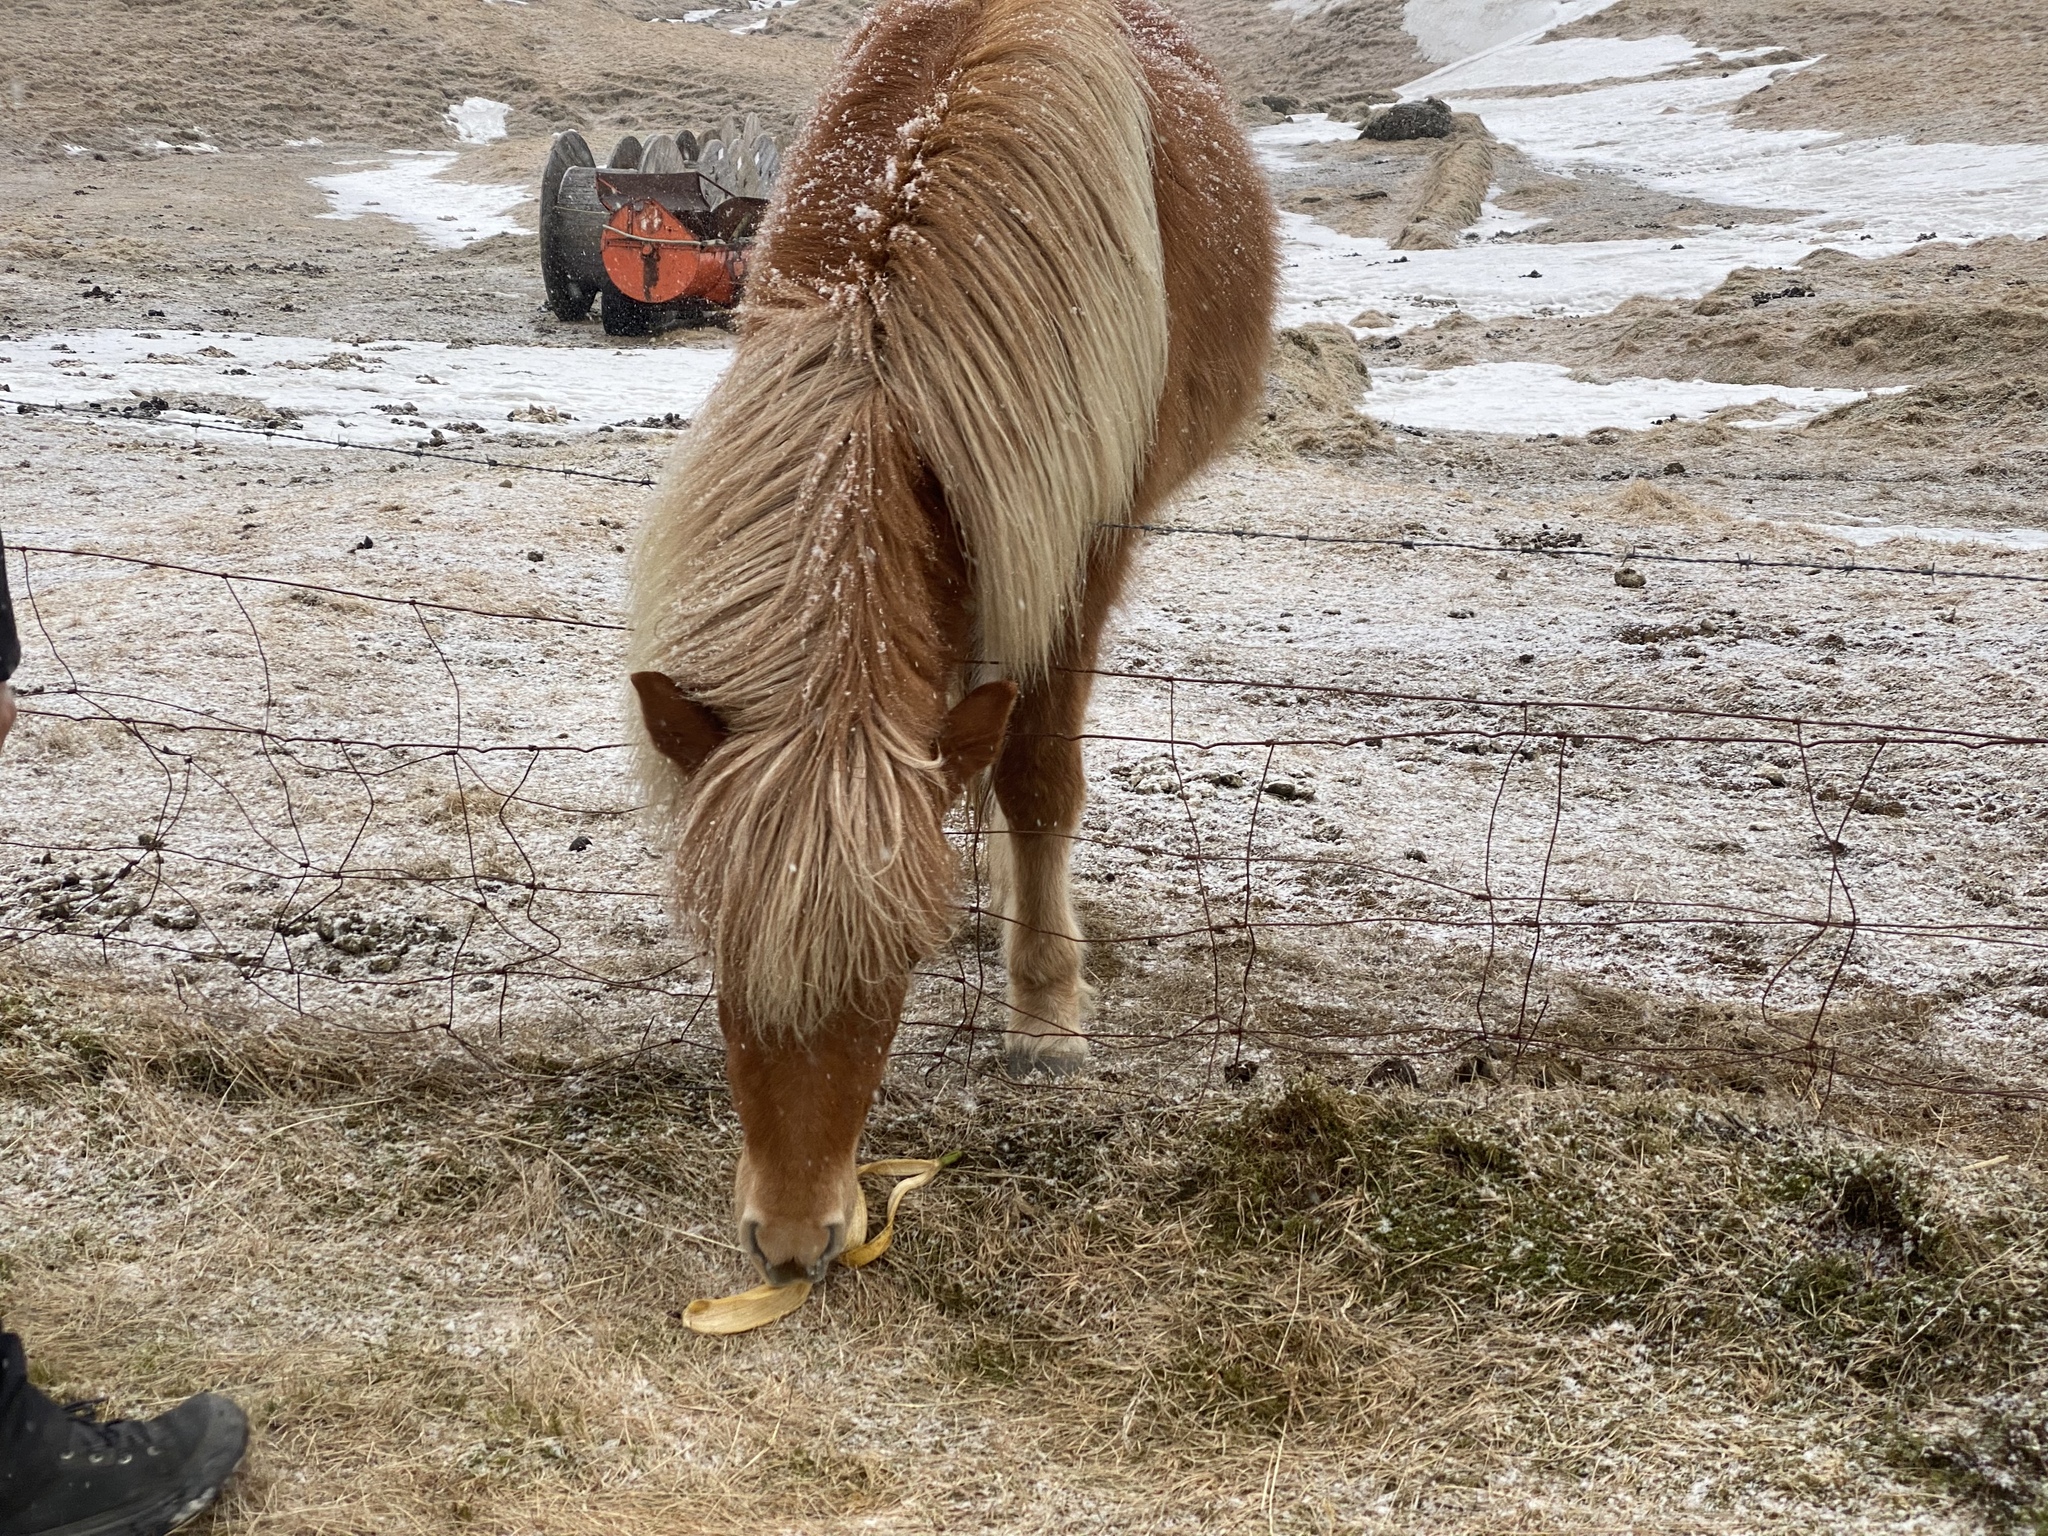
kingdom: Animalia
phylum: Chordata
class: Mammalia
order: Perissodactyla
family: Equidae
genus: Equus
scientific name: Equus caballus
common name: Horse
